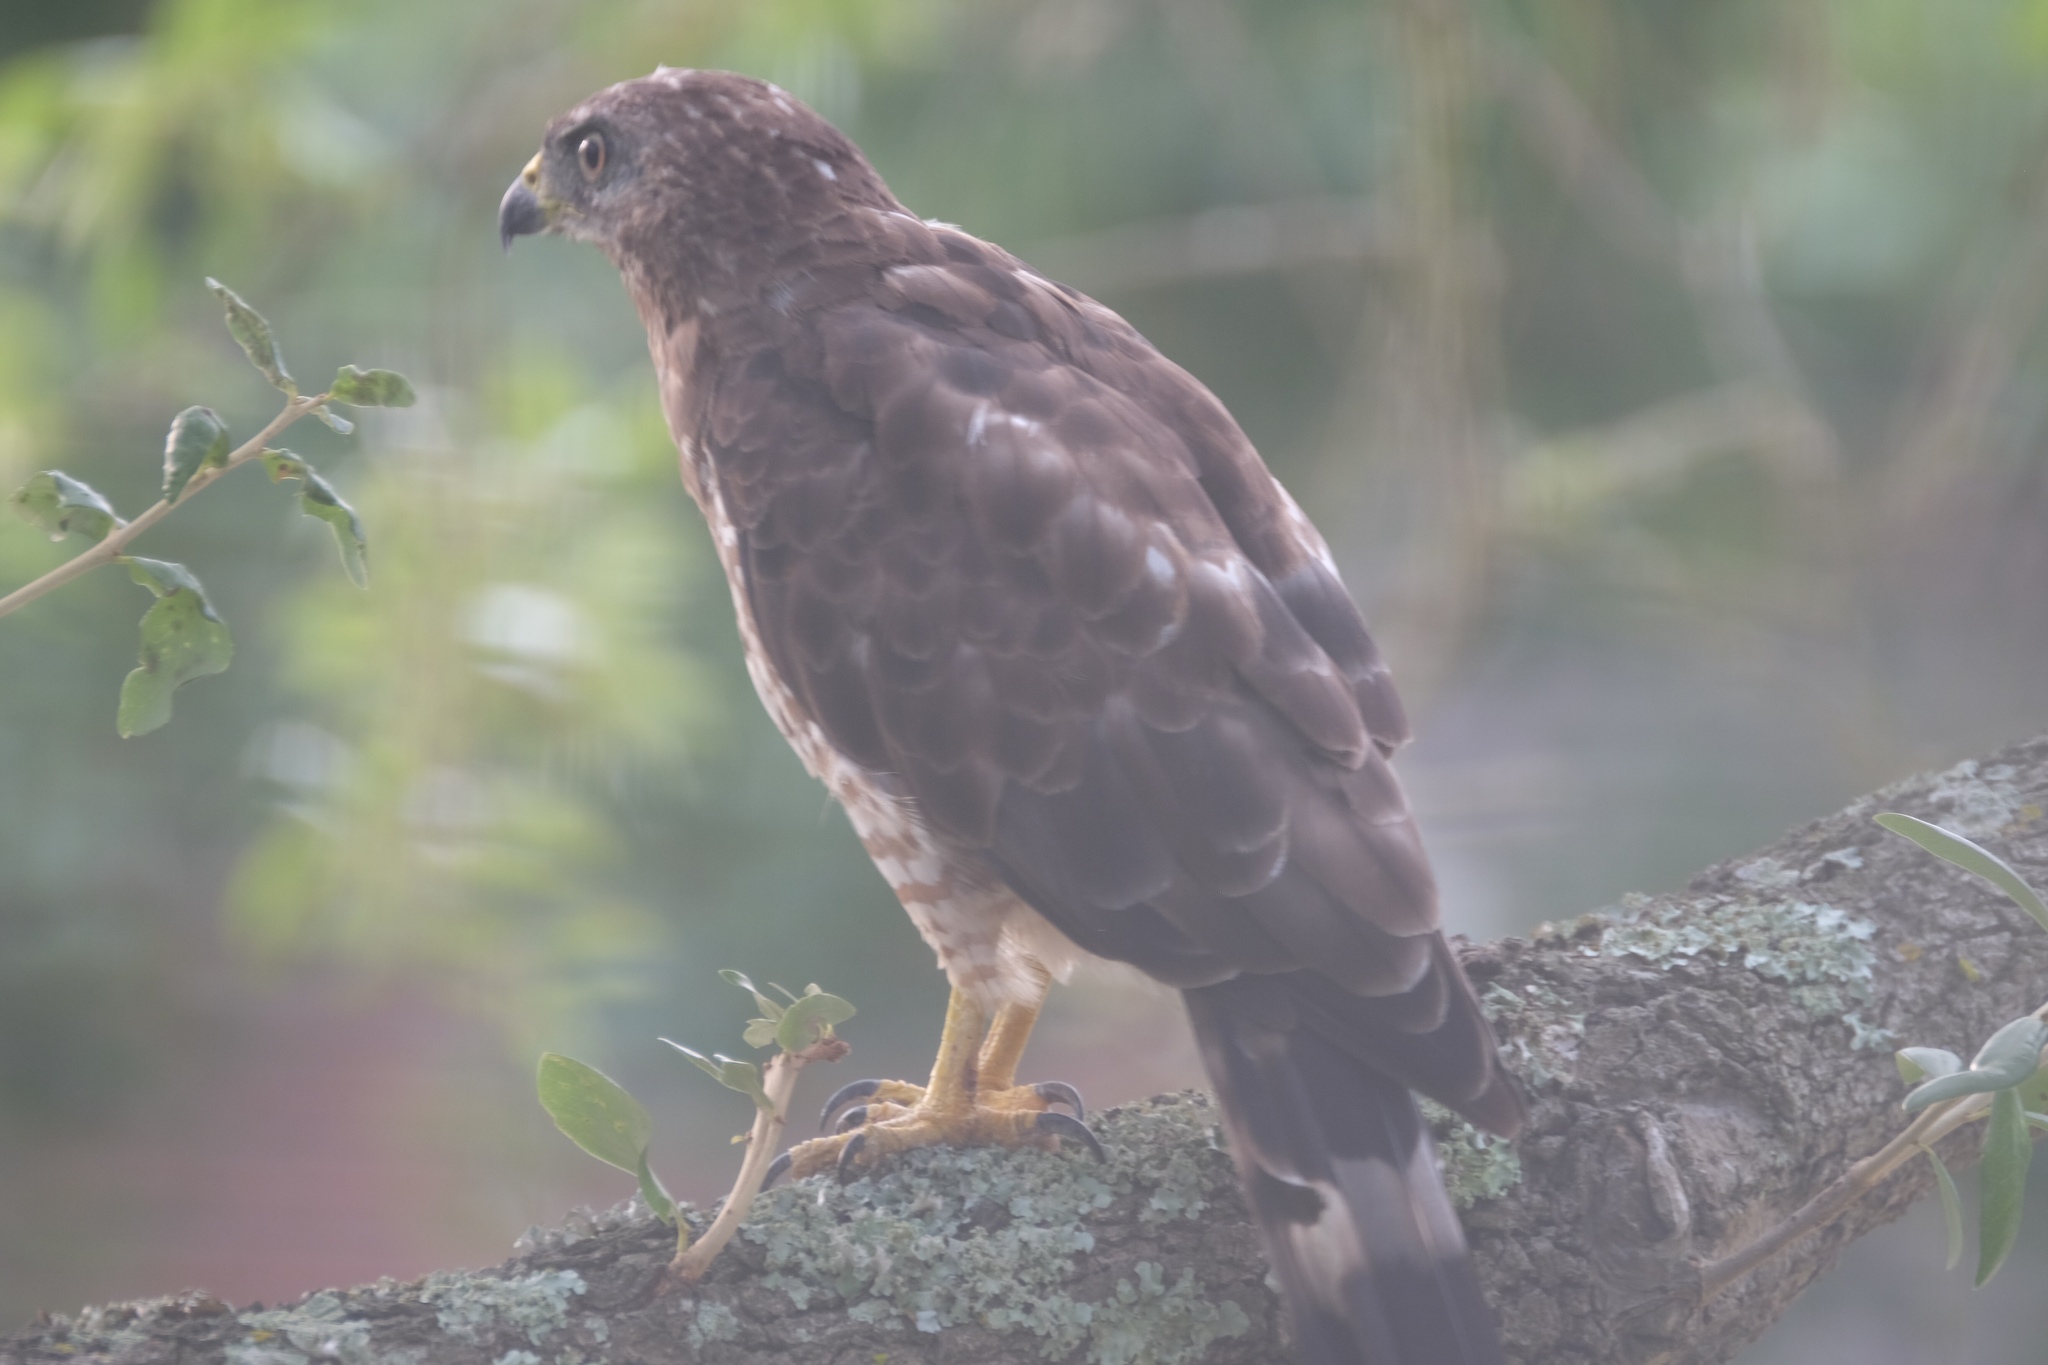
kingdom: Animalia
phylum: Chordata
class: Aves
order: Accipitriformes
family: Accipitridae
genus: Buteo
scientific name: Buteo platypterus
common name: Broad-winged hawk
